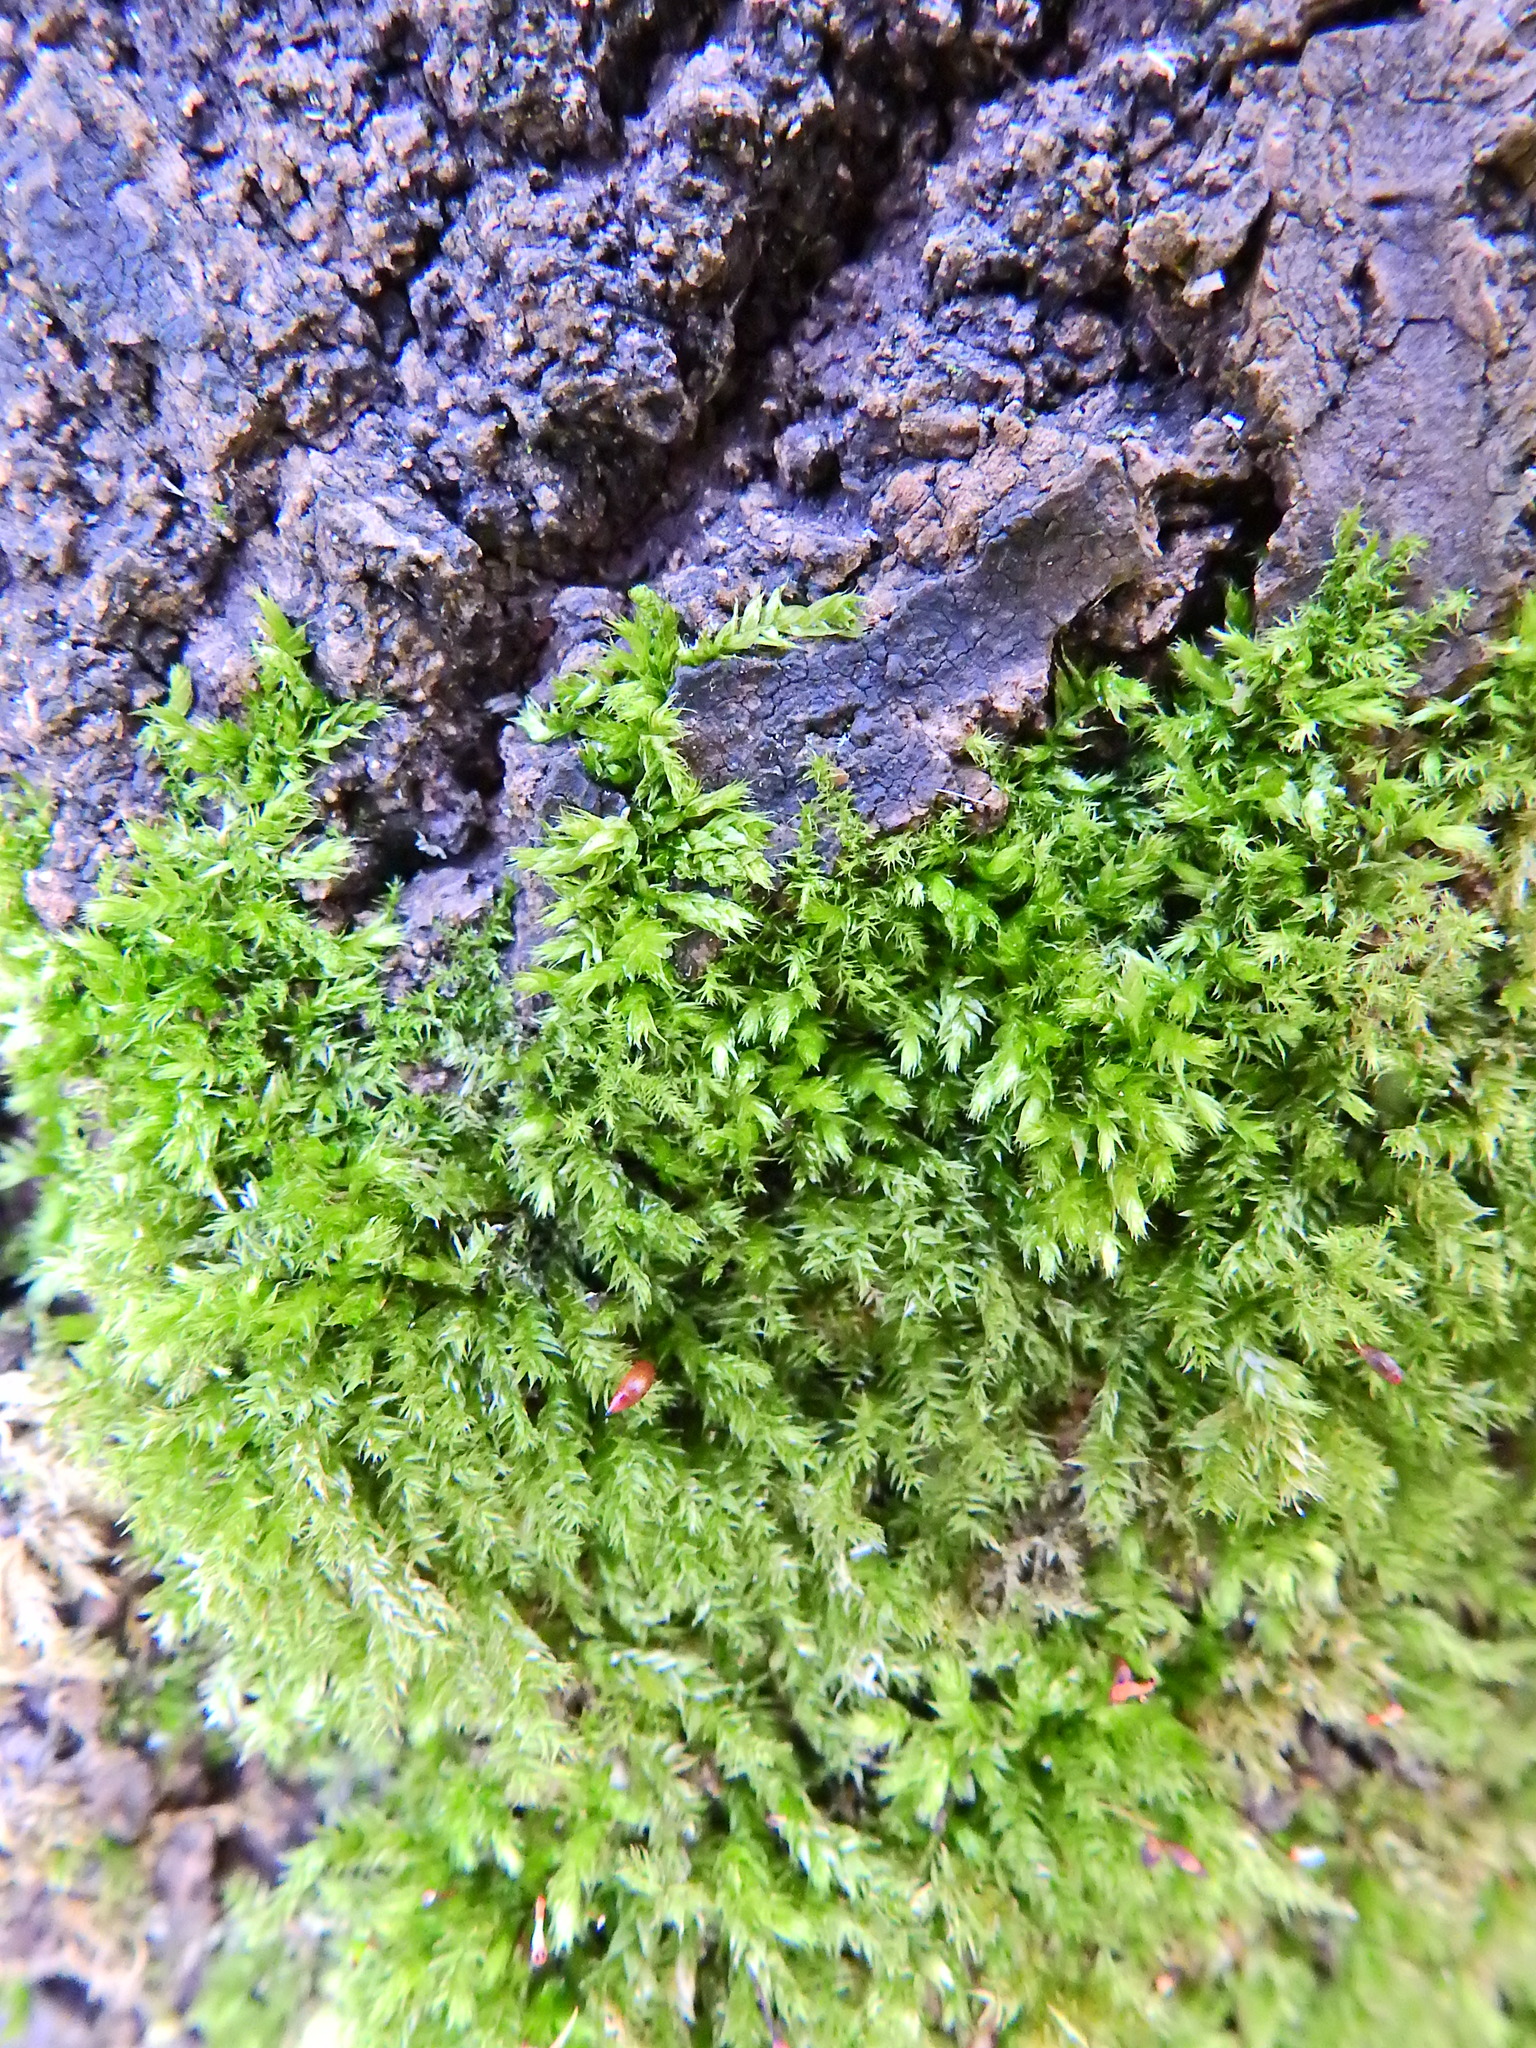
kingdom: Plantae
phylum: Bryophyta
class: Bryopsida
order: Hypnales
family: Brachytheciaceae
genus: Brachythecium
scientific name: Brachythecium rutabulum
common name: Rough-stalked feather-moss
